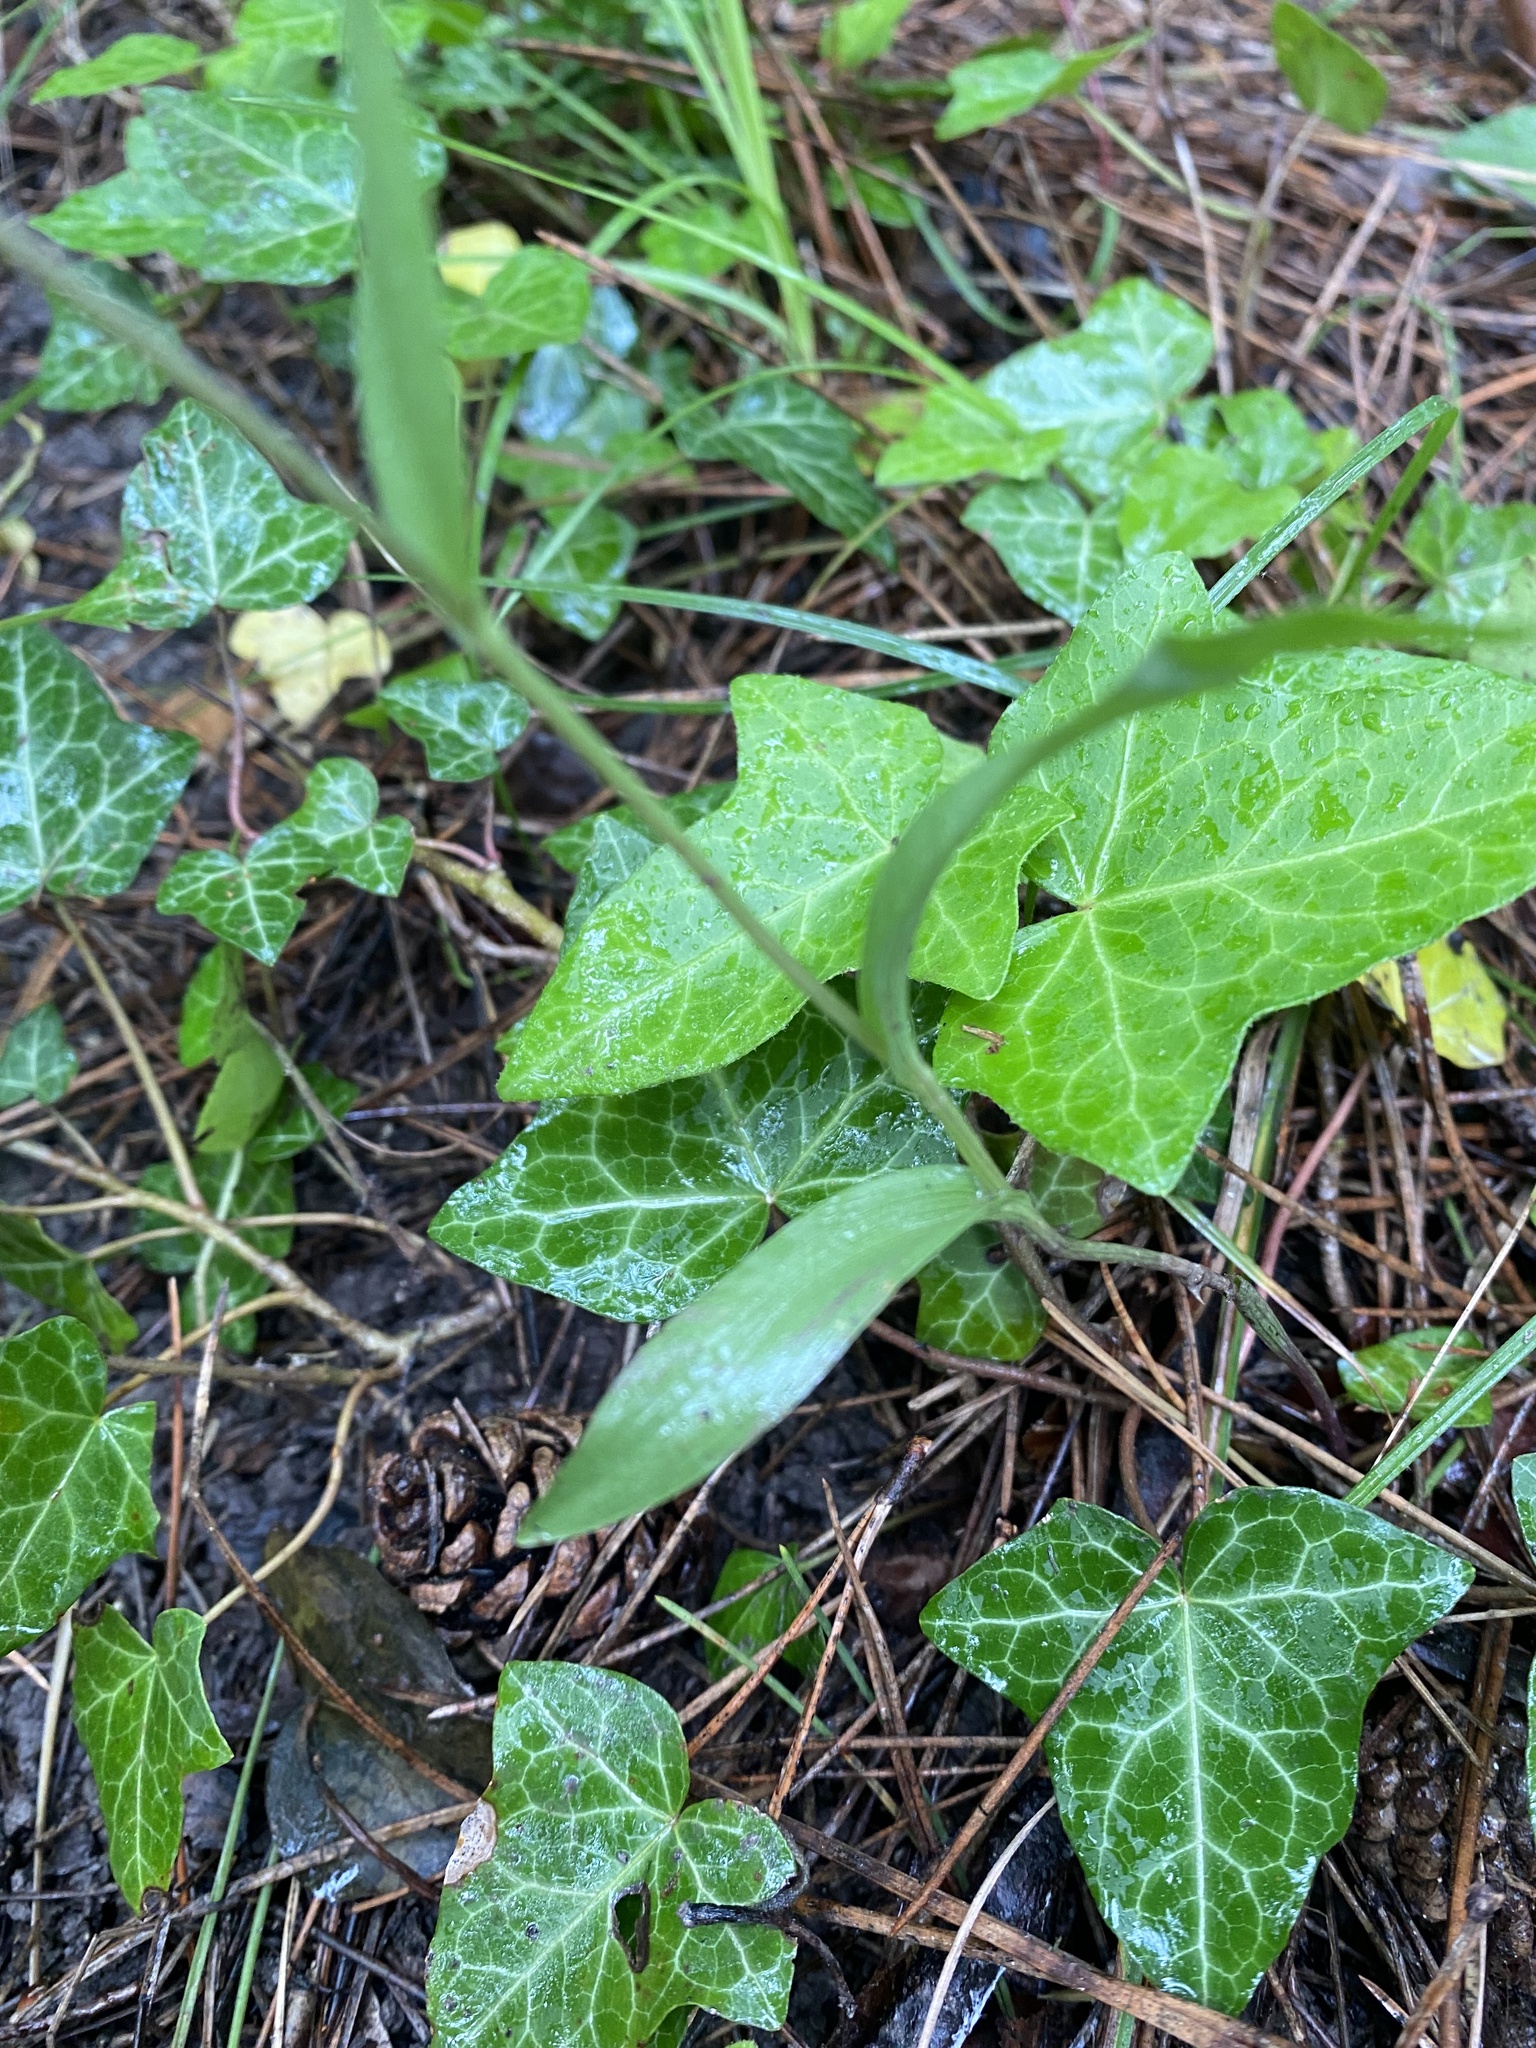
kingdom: Plantae
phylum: Tracheophyta
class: Liliopsida
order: Asparagales
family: Orchidaceae
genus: Cephalanthera
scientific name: Cephalanthera rubra
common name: Red helleborine
